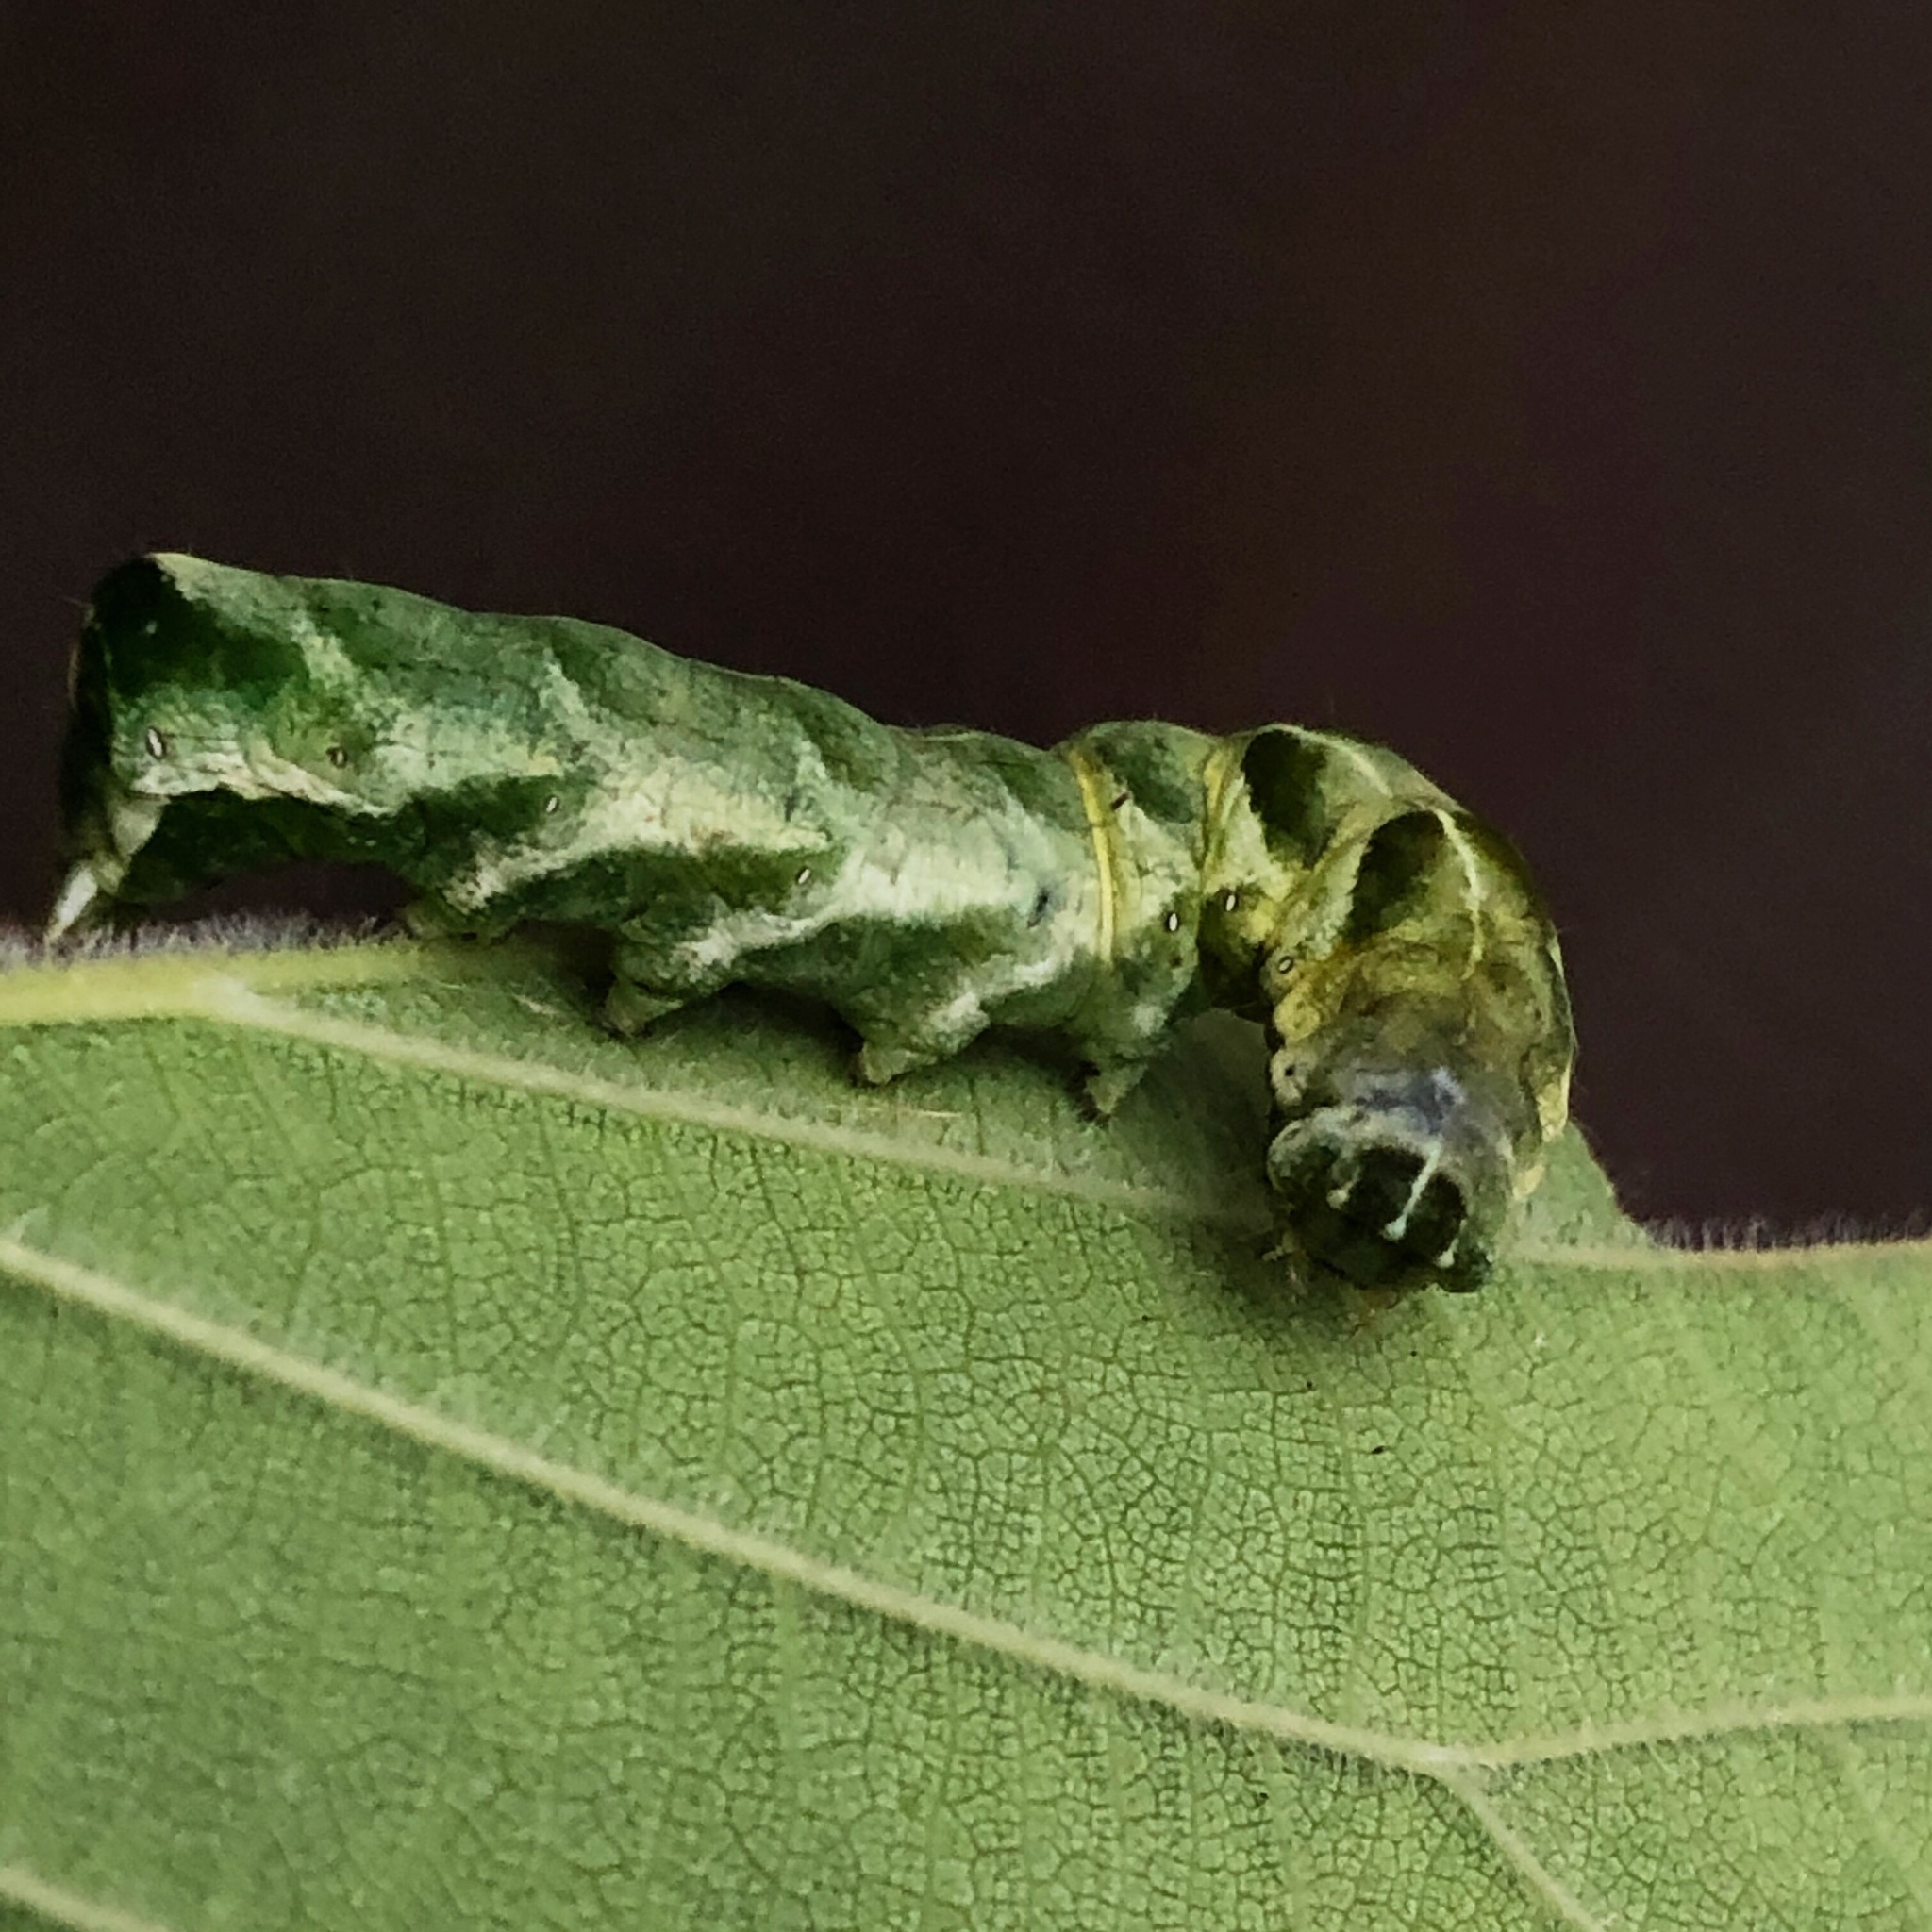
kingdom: Animalia
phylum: Arthropoda
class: Insecta
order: Lepidoptera
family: Noctuidae
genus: Melanchra
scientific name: Melanchra adjuncta
